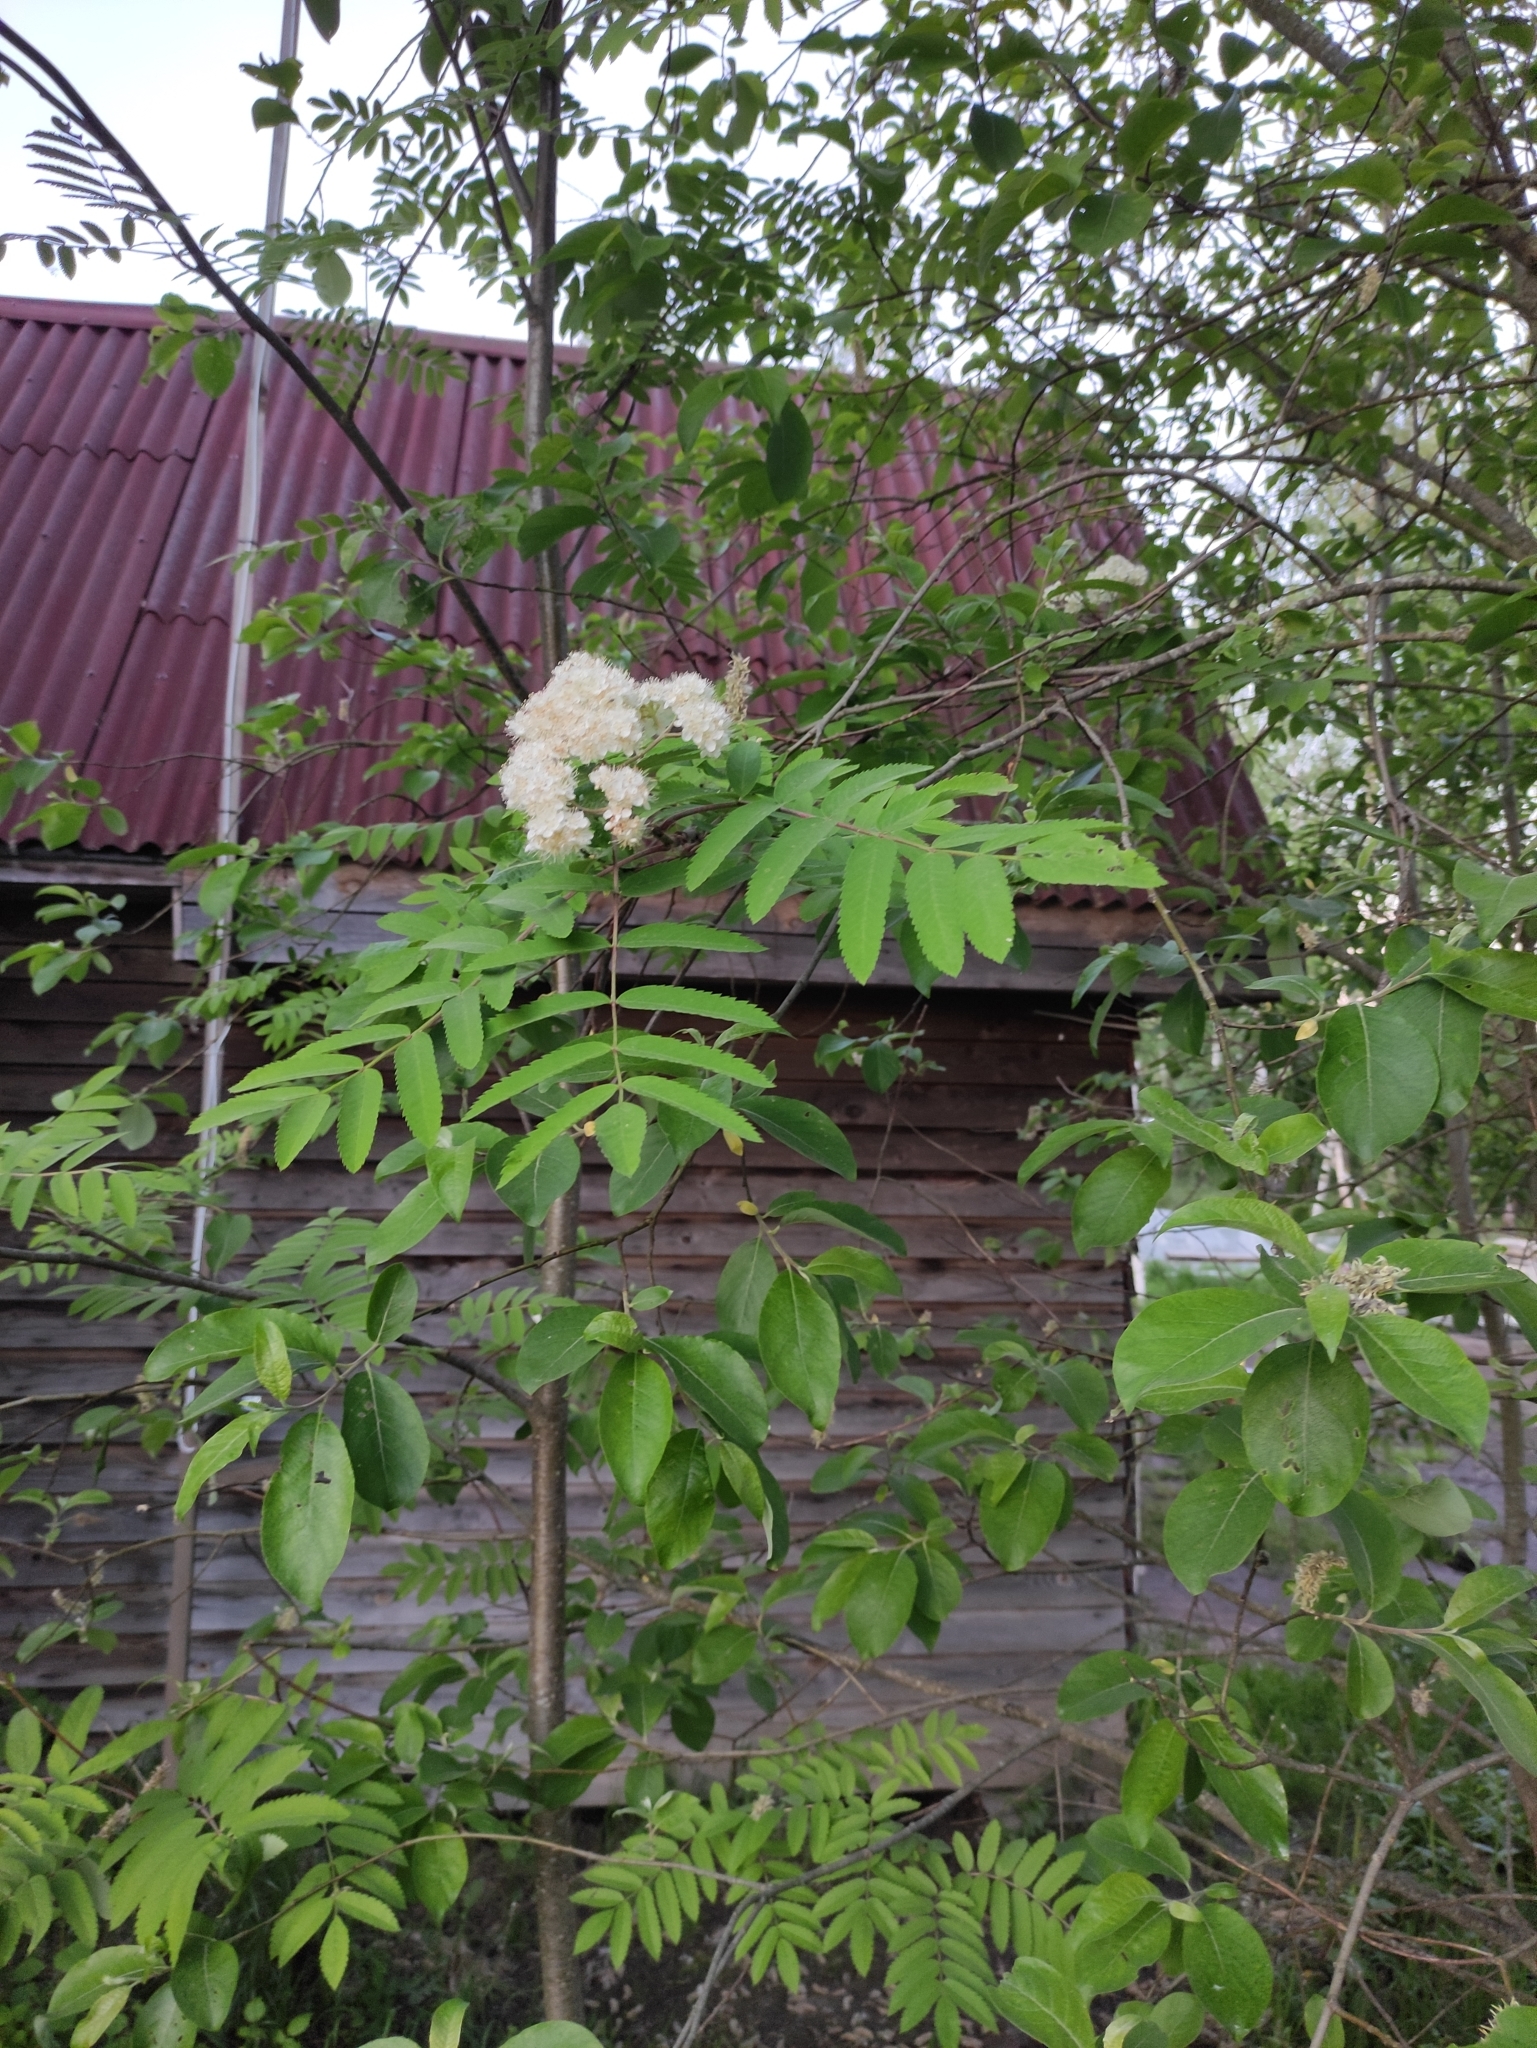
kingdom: Plantae
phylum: Tracheophyta
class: Magnoliopsida
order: Rosales
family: Rosaceae
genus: Sorbus
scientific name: Sorbus aucuparia
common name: Rowan
